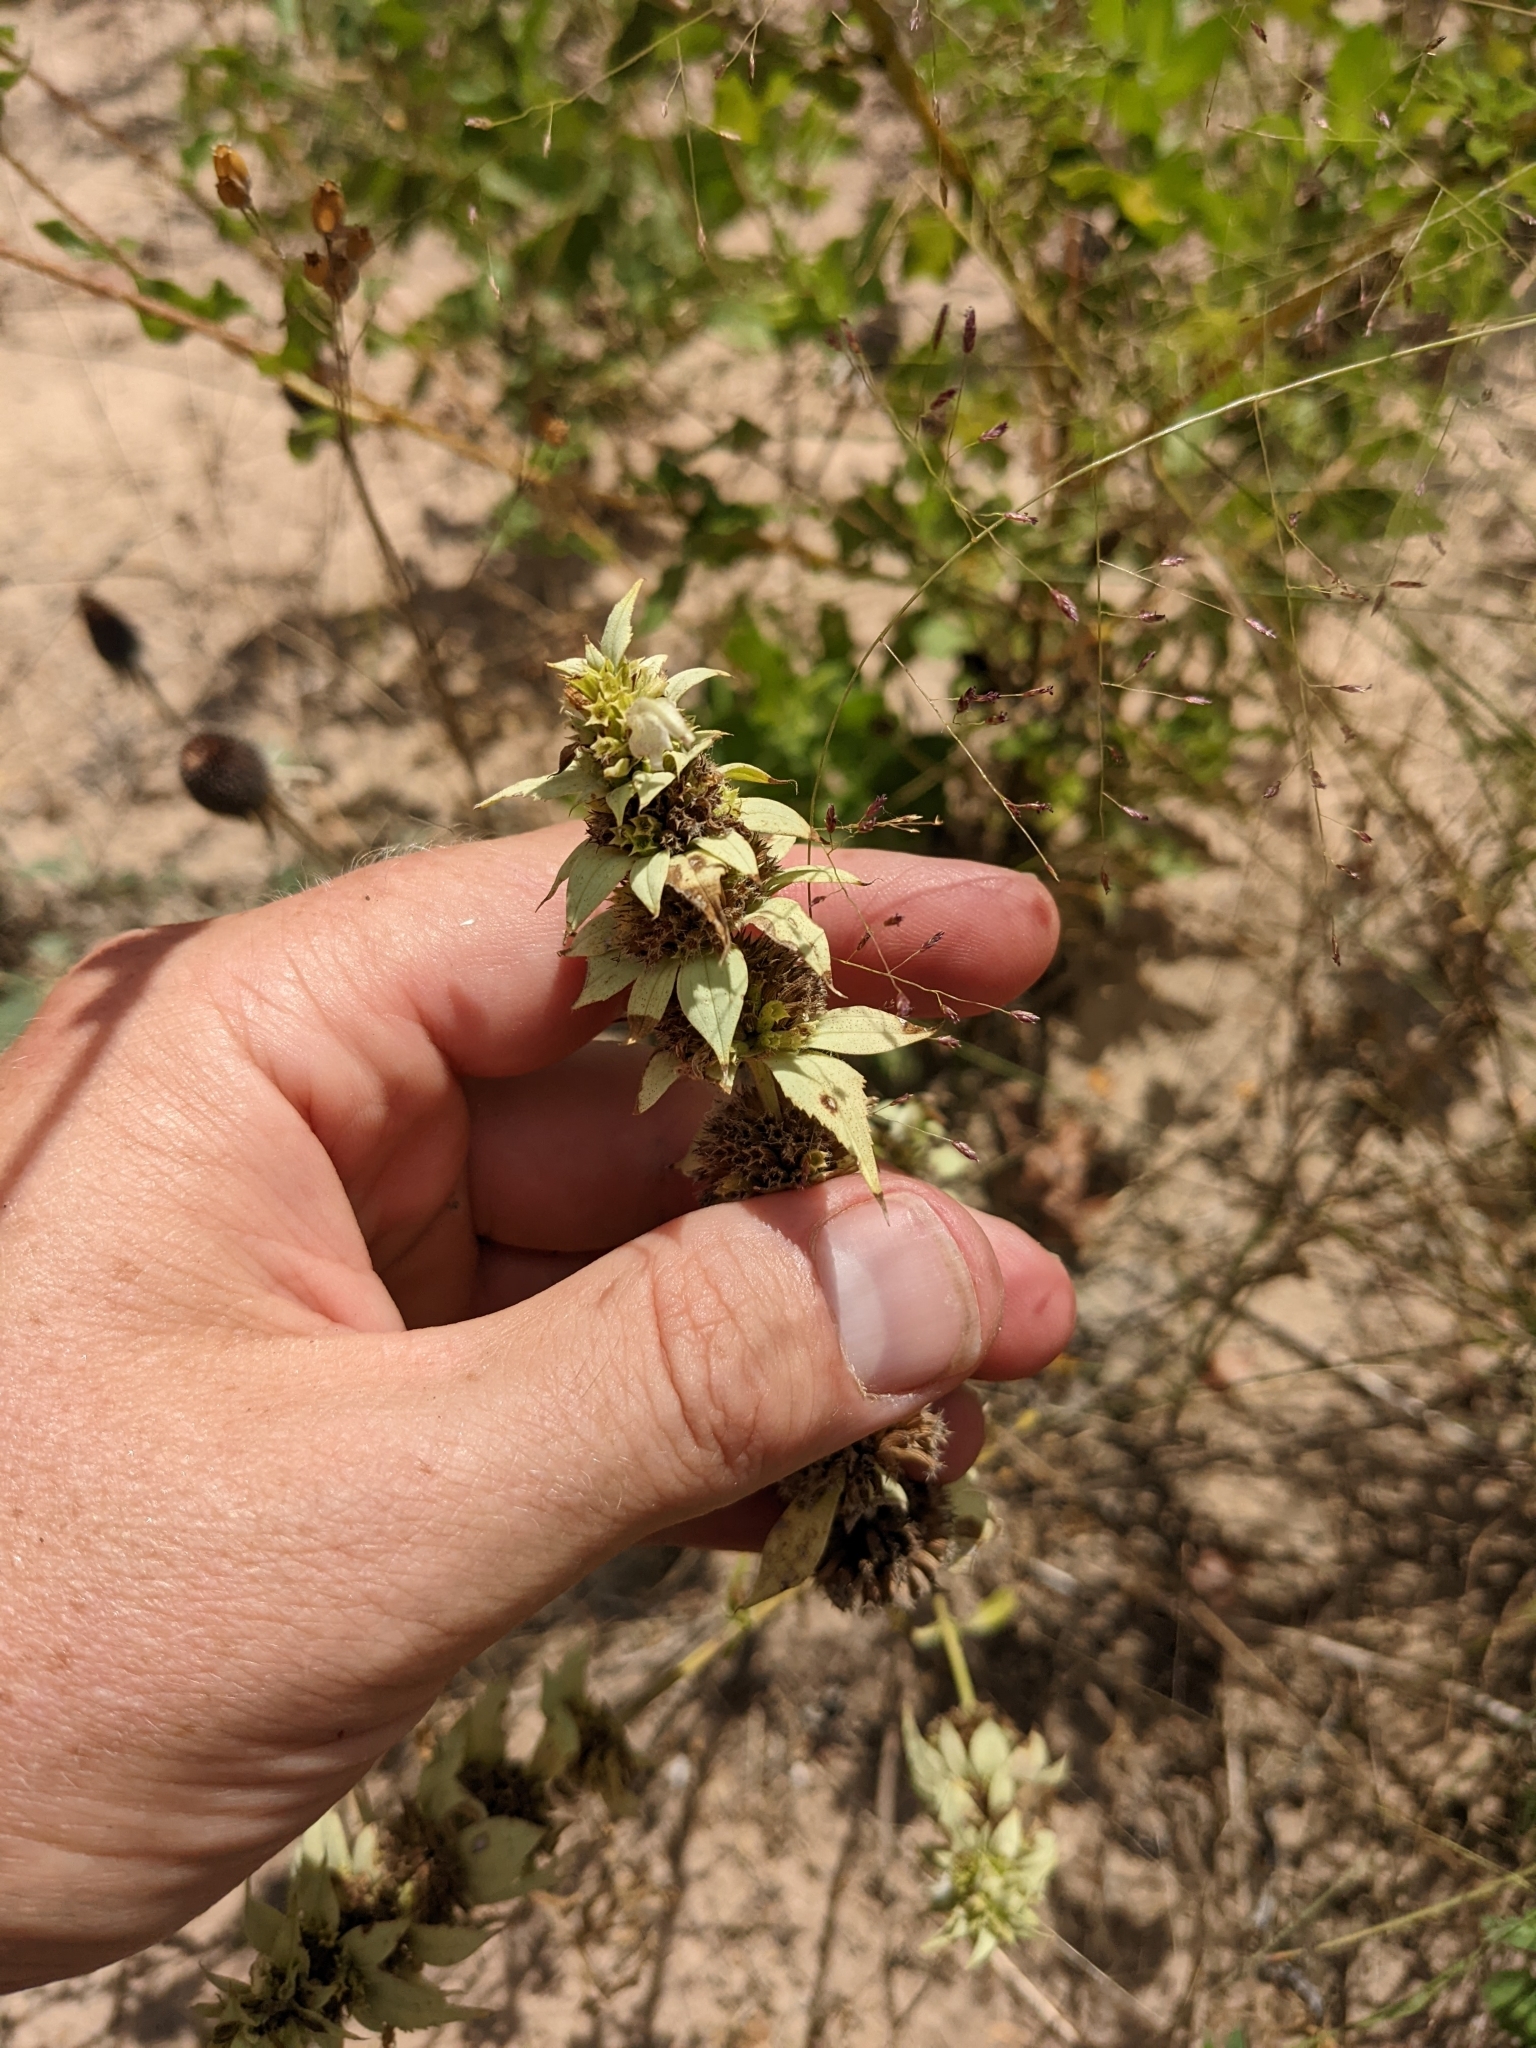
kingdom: Plantae
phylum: Tracheophyta
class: Magnoliopsida
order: Lamiales
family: Lamiaceae
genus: Monarda
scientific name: Monarda punctata
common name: Dotted monarda
